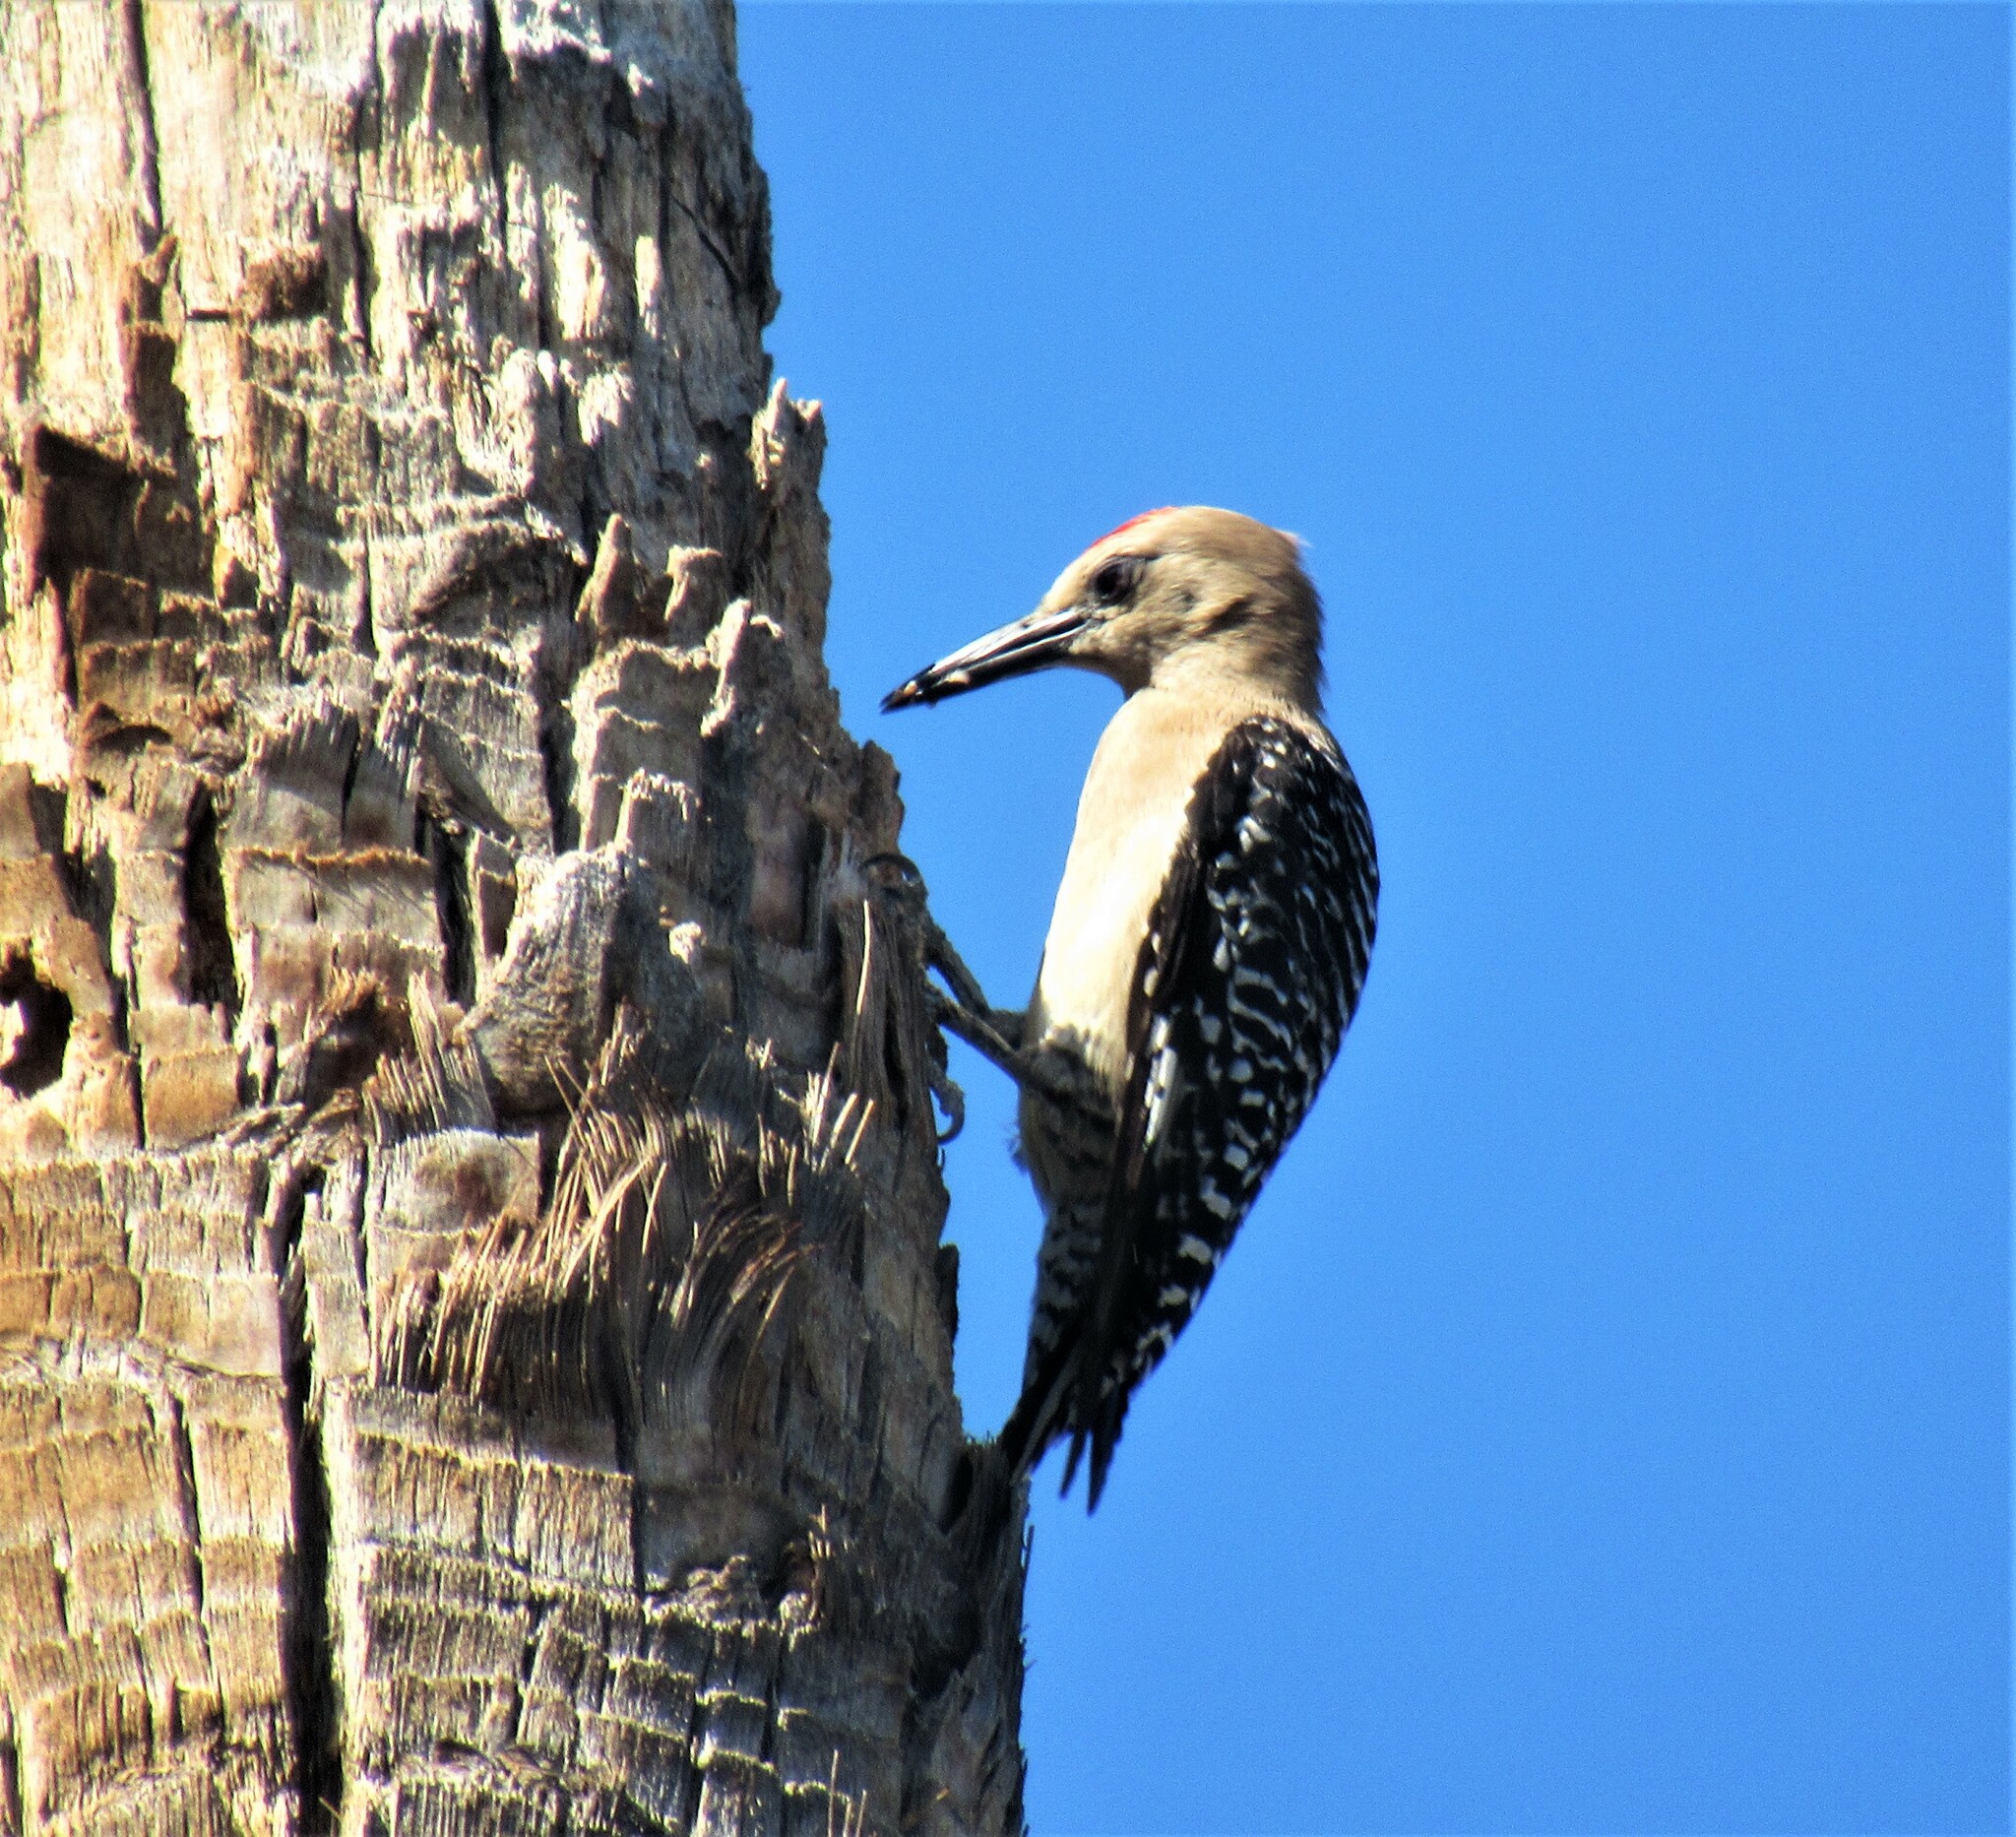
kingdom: Animalia
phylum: Chordata
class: Aves
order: Piciformes
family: Picidae
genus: Melanerpes
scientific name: Melanerpes uropygialis
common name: Gila woodpecker
